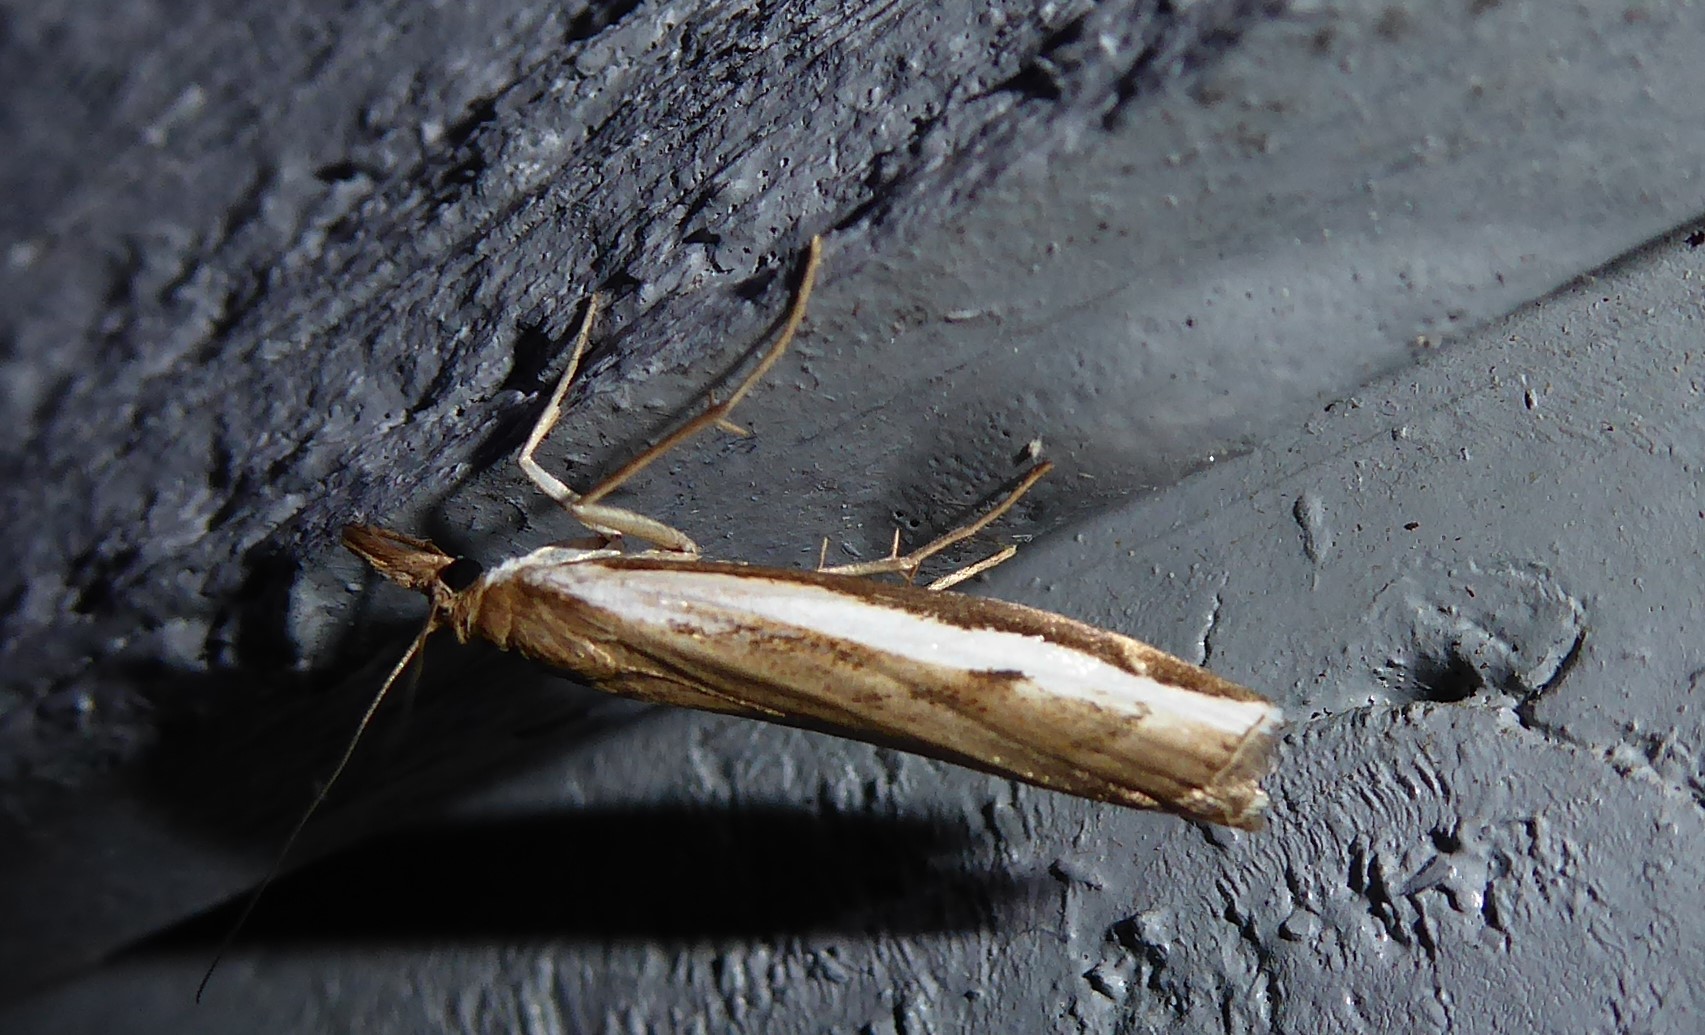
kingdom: Animalia
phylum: Arthropoda
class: Insecta
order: Lepidoptera
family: Crambidae
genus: Orocrambus
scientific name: Orocrambus flexuosellus
